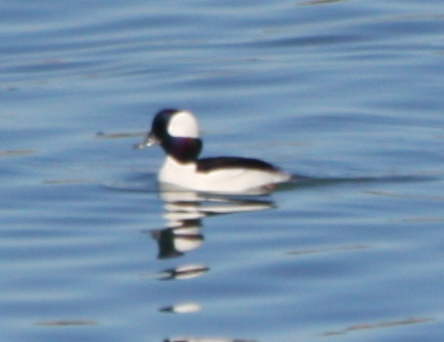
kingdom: Animalia
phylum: Chordata
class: Aves
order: Anseriformes
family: Anatidae
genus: Bucephala
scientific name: Bucephala albeola
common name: Bufflehead
